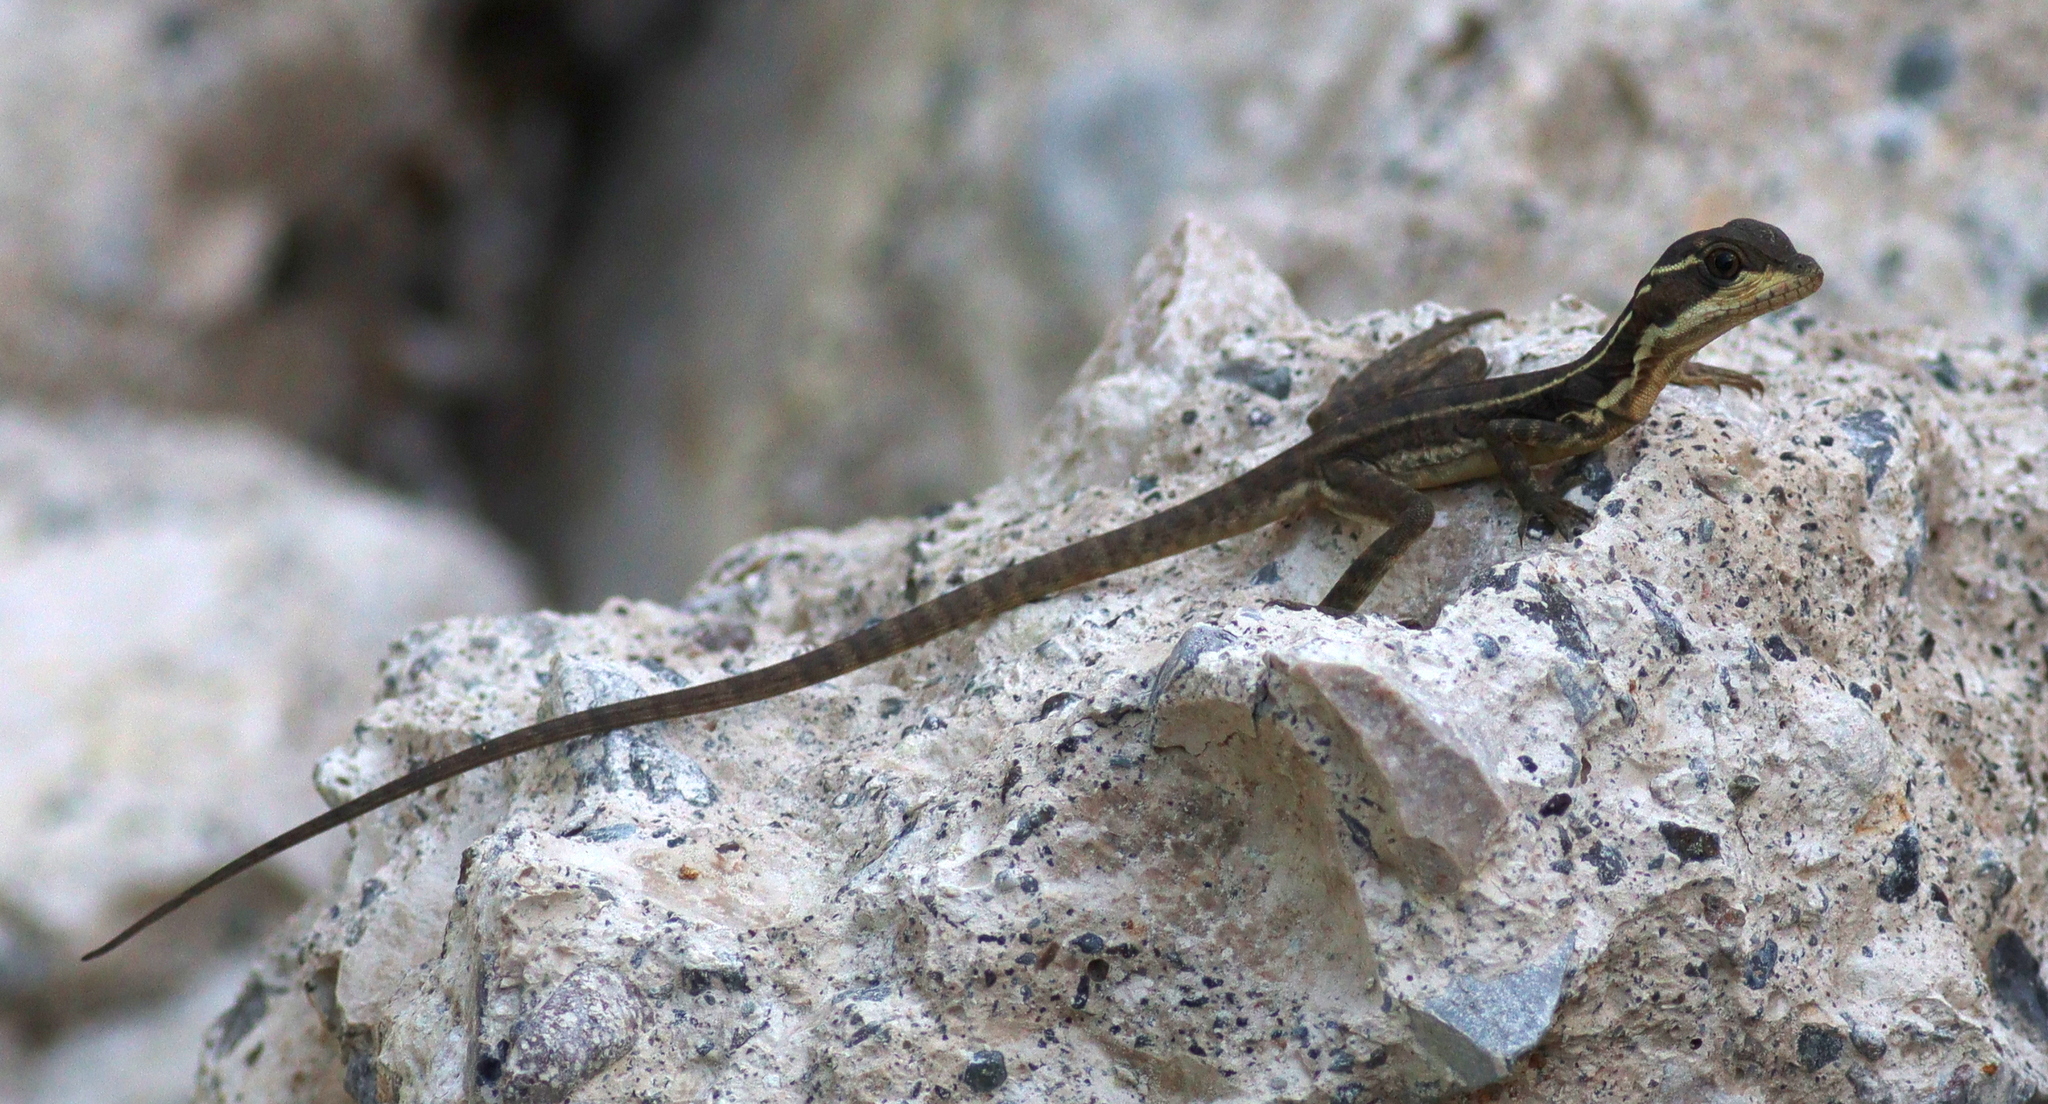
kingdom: Animalia
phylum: Chordata
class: Squamata
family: Corytophanidae
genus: Basiliscus
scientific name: Basiliscus basiliscus
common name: Common basilisk
